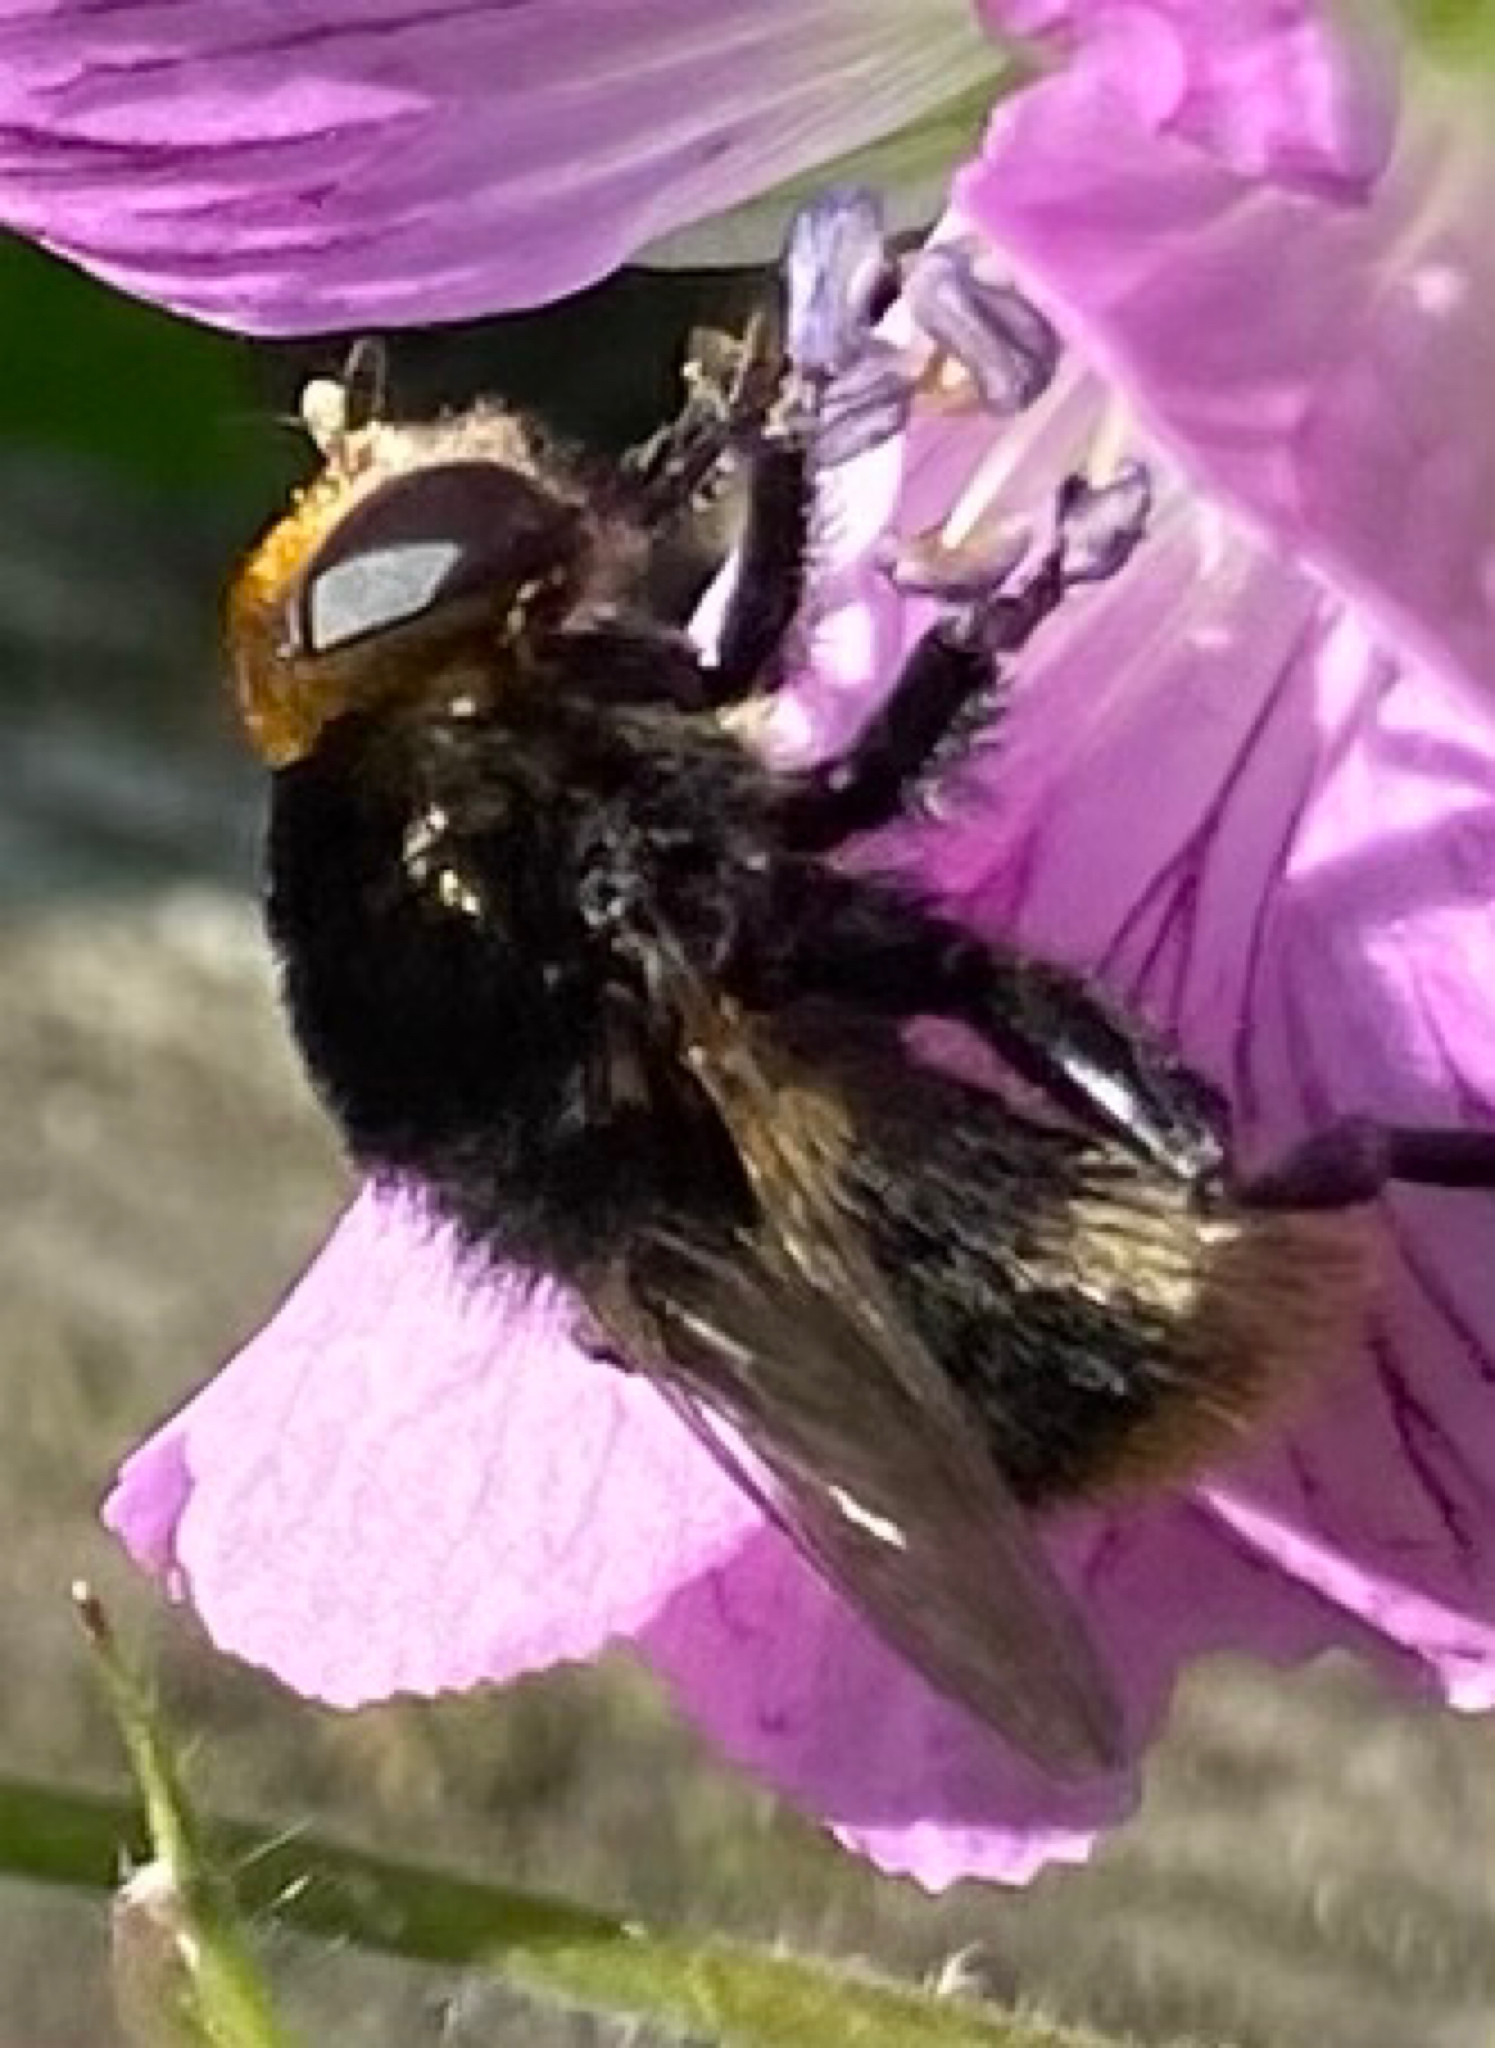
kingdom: Animalia
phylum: Arthropoda
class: Insecta
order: Diptera
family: Syrphidae
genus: Merodon
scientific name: Merodon equestris
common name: Greater bulb-fly
